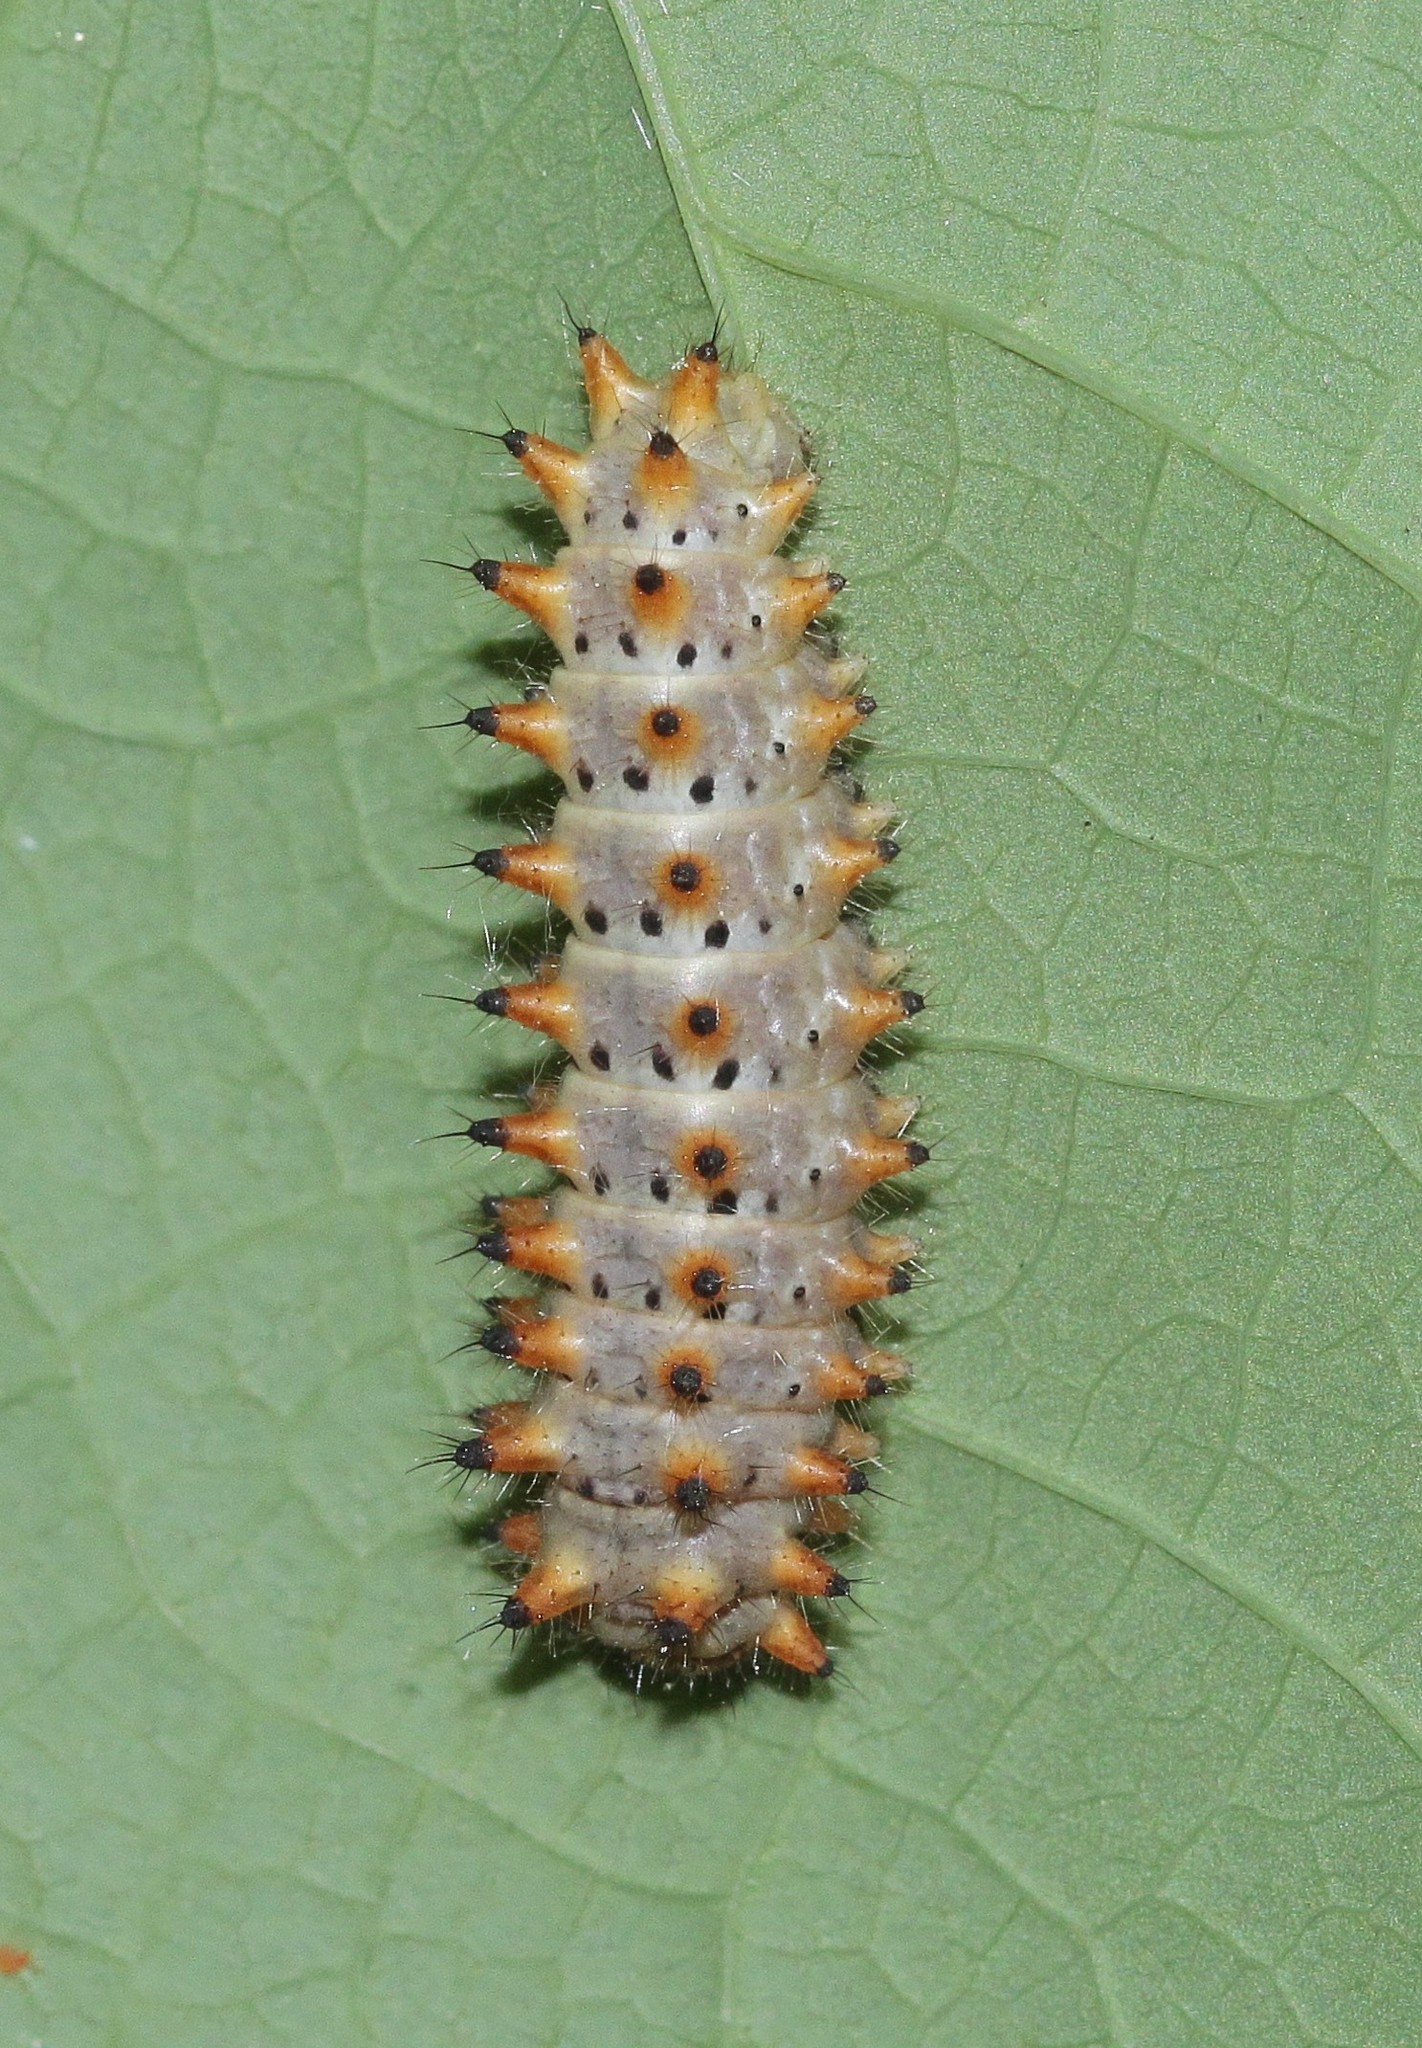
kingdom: Animalia
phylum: Arthropoda
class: Insecta
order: Lepidoptera
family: Papilionidae
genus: Zerynthia
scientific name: Zerynthia polyxena
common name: Southern festoon
